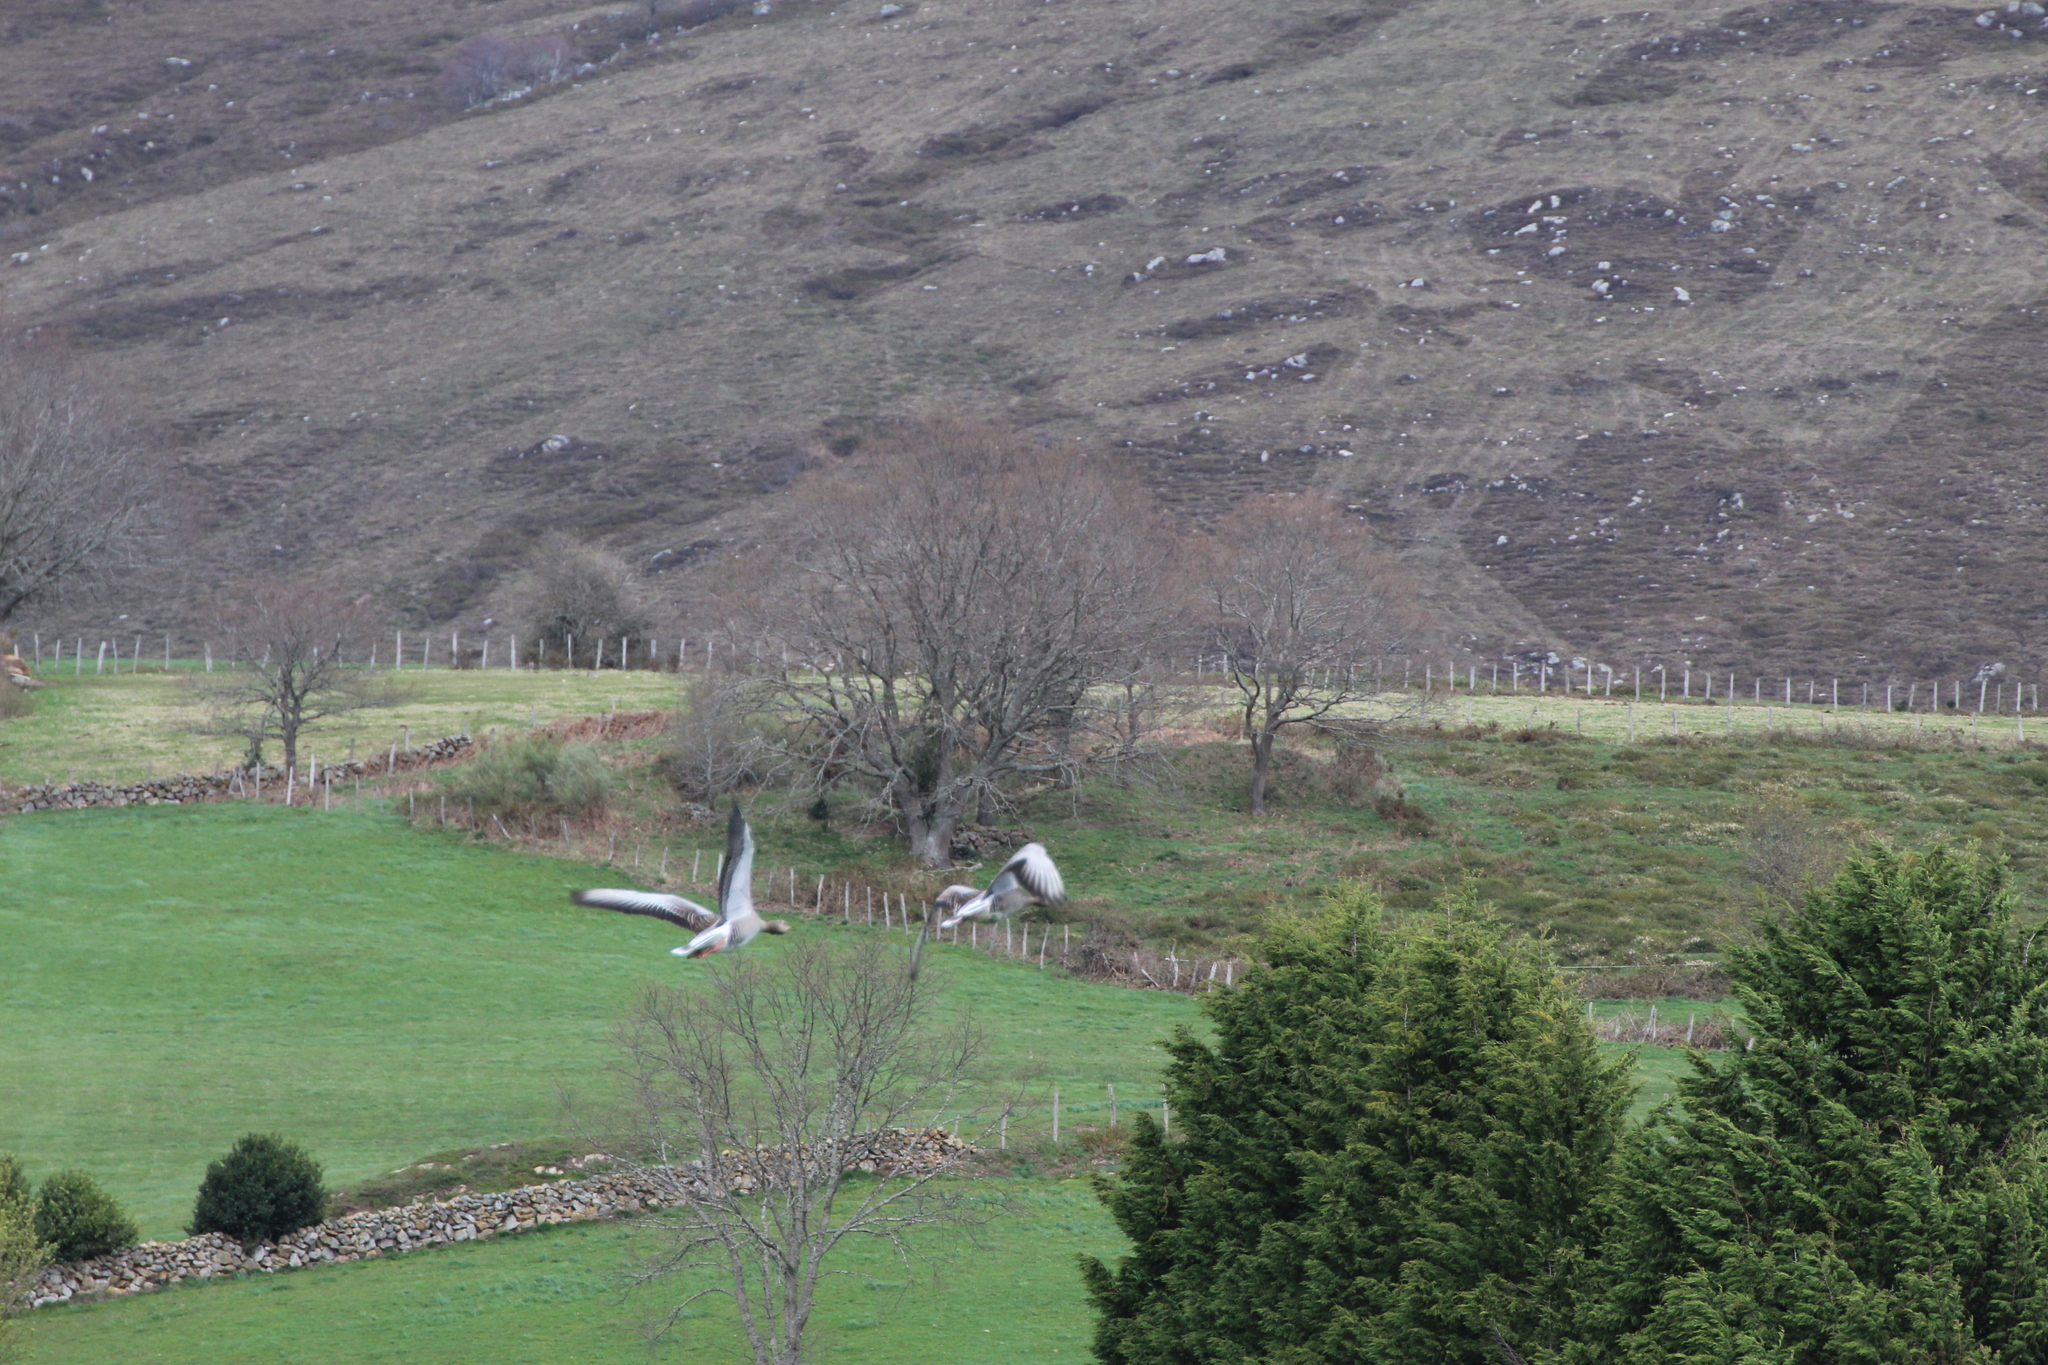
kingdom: Animalia
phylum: Chordata
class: Aves
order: Anseriformes
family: Anatidae
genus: Anser
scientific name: Anser anser
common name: Greylag goose
